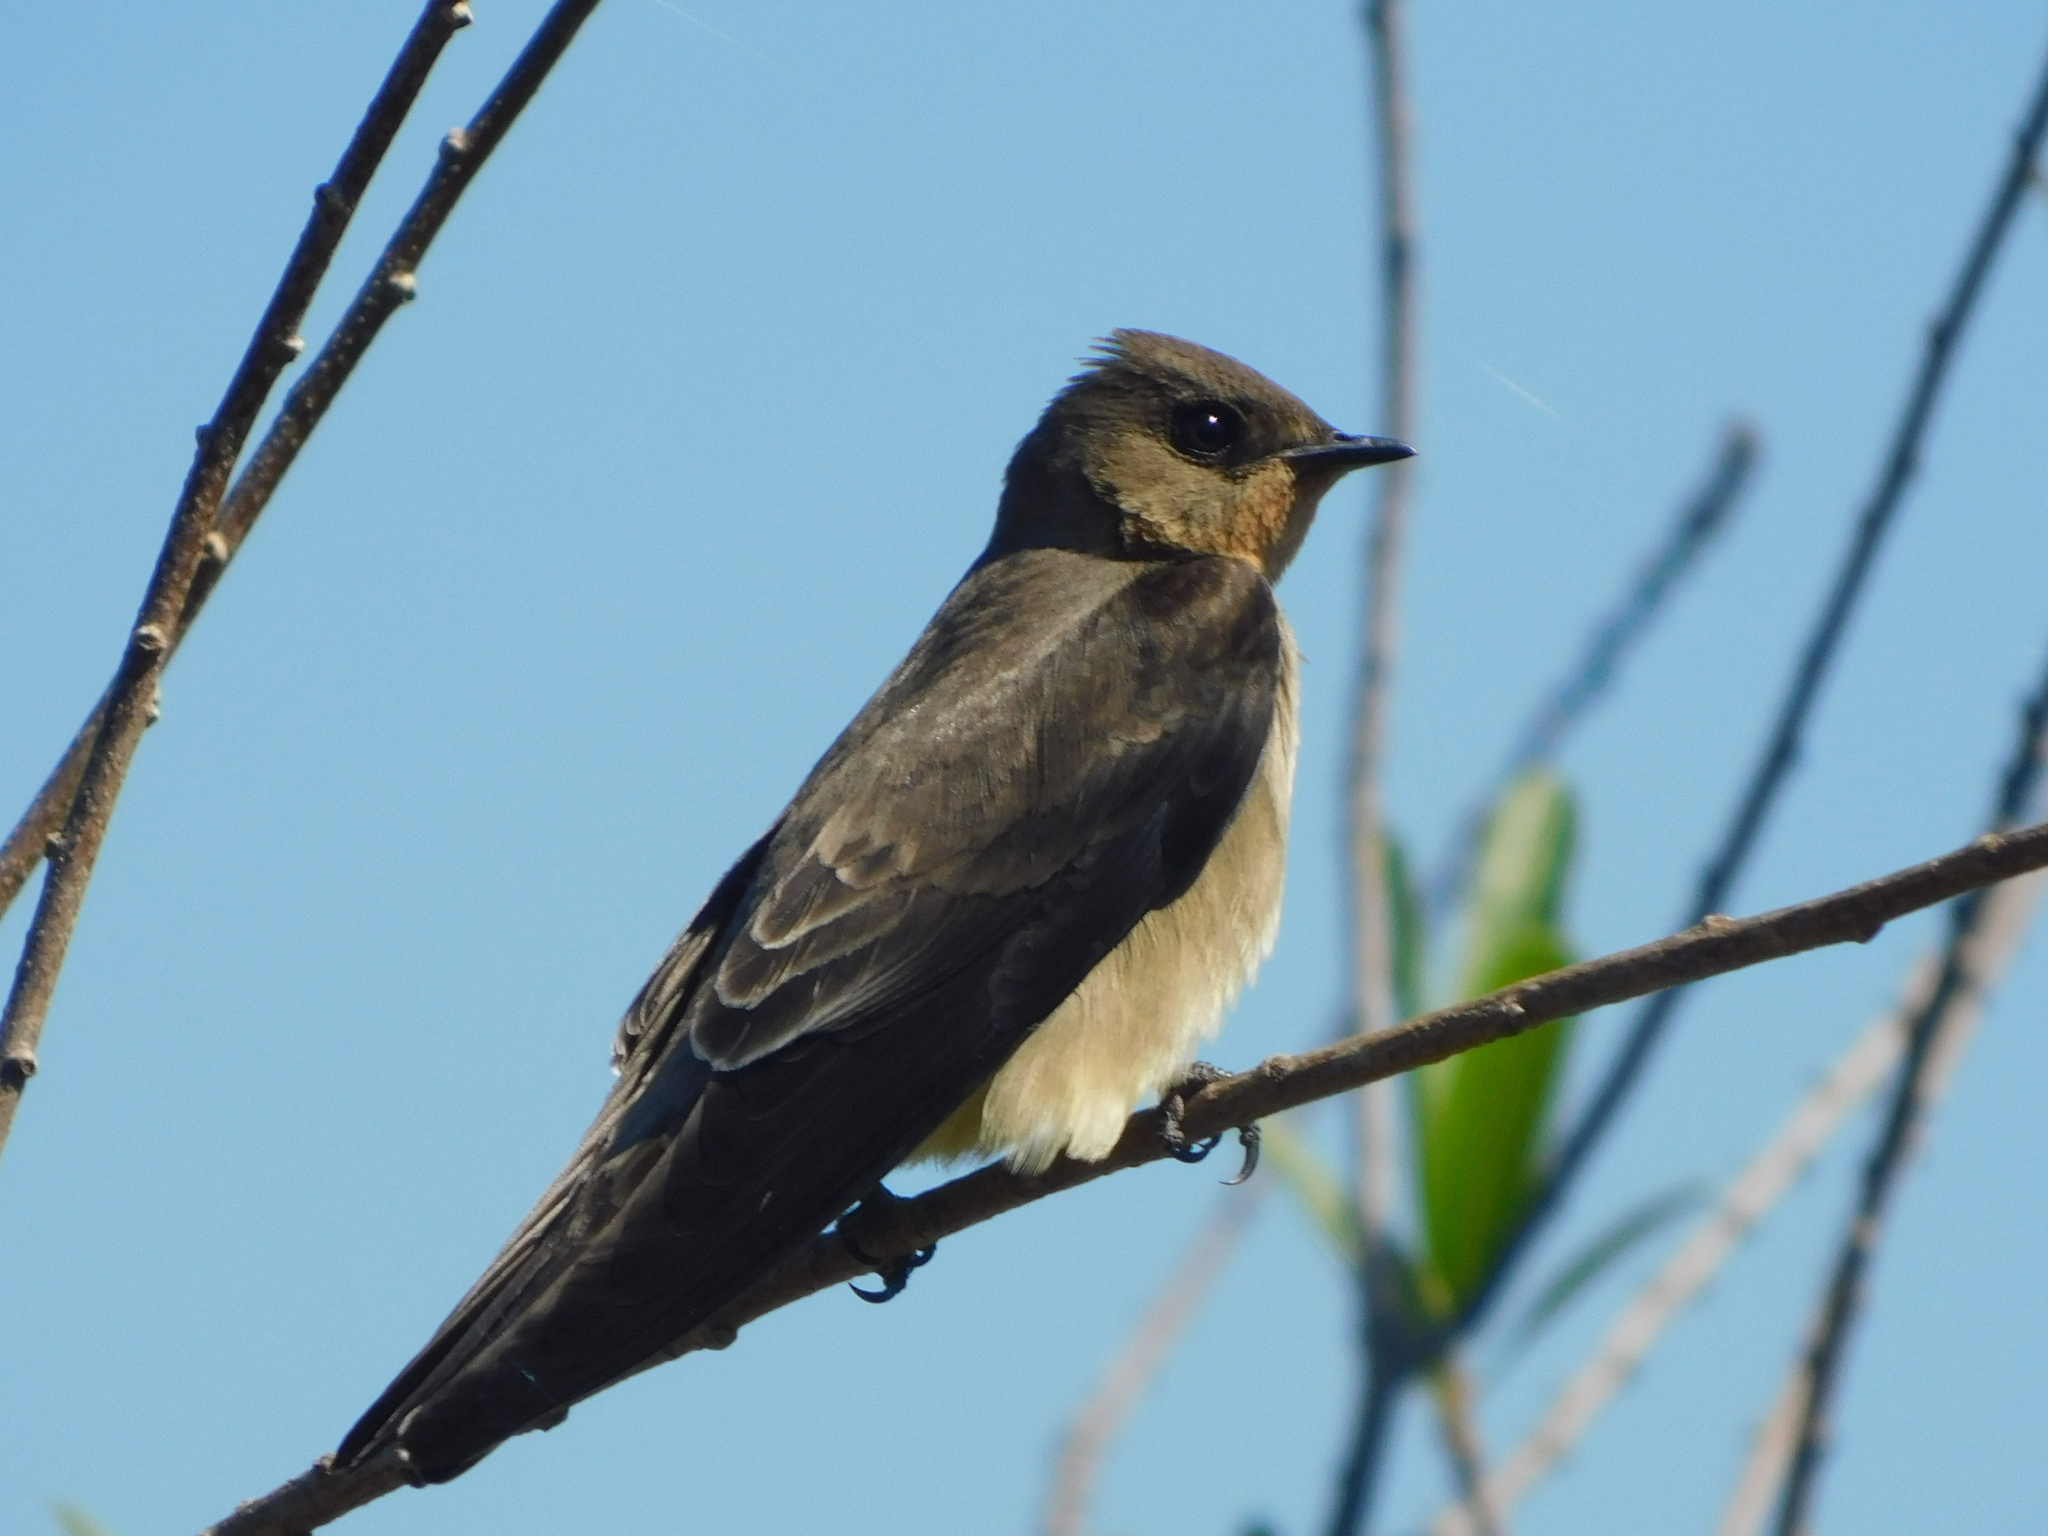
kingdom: Animalia
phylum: Chordata
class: Aves
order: Passeriformes
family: Hirundinidae
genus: Stelgidopteryx
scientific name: Stelgidopteryx ruficollis
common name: Southern rough-winged swallow
